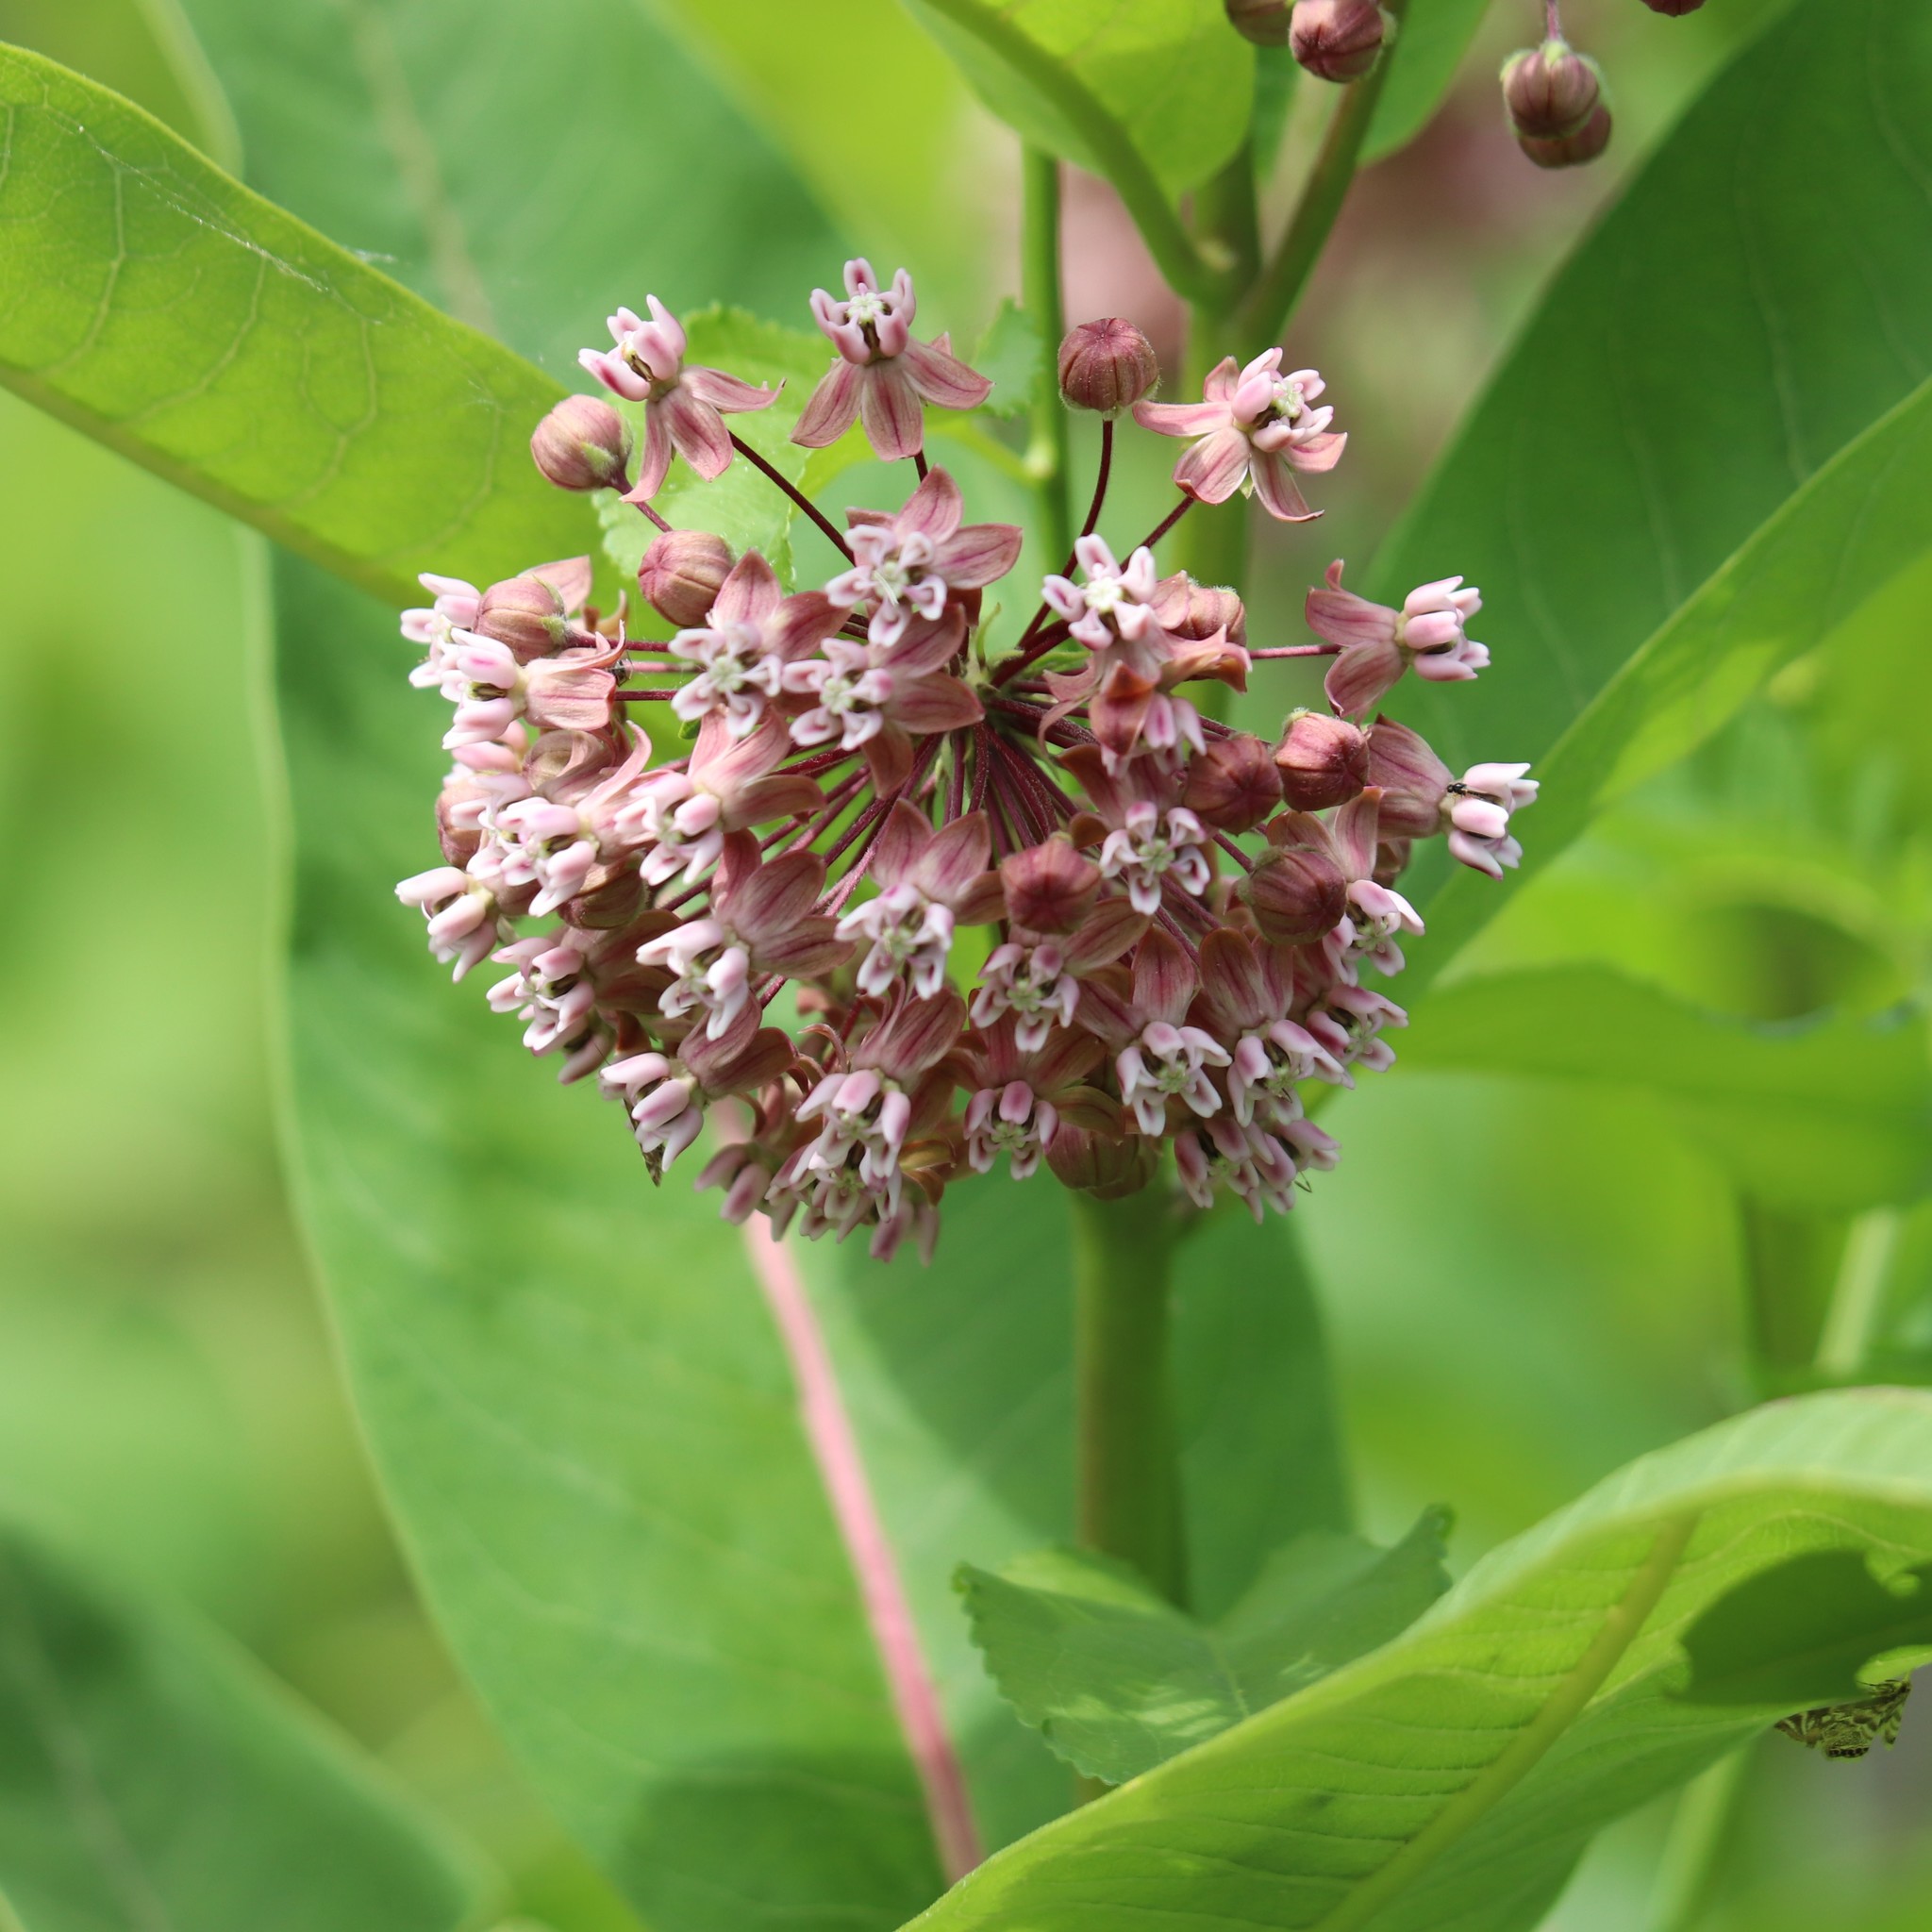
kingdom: Plantae
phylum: Tracheophyta
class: Magnoliopsida
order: Gentianales
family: Apocynaceae
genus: Asclepias
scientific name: Asclepias syriaca
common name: Common milkweed
